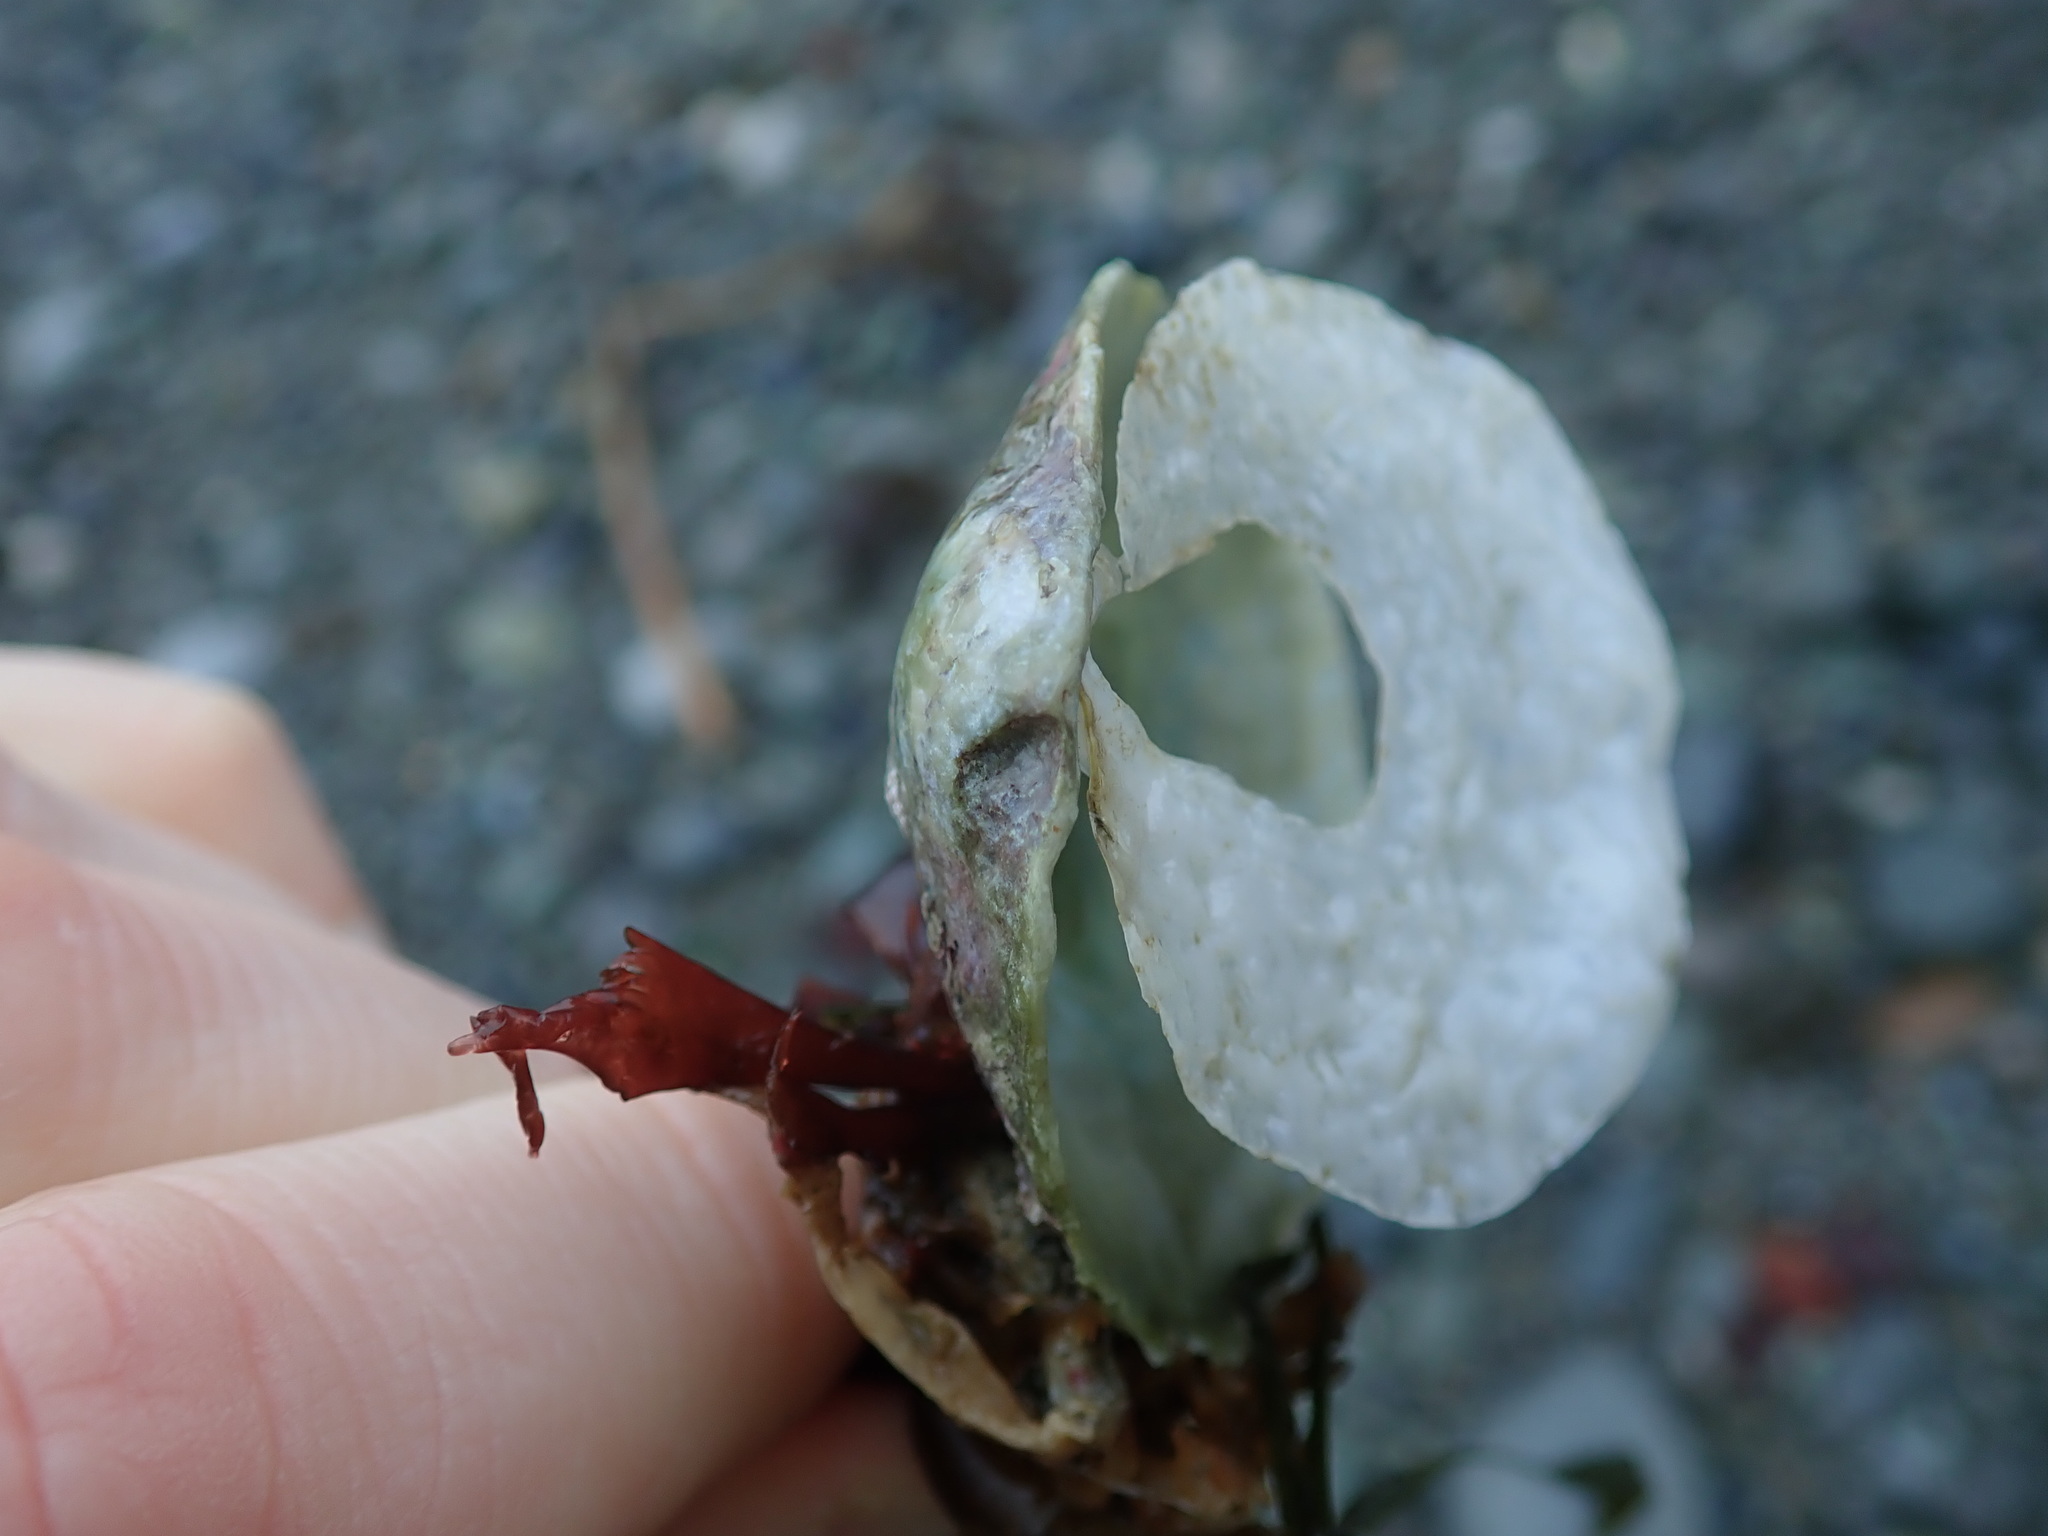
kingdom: Animalia
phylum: Mollusca
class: Bivalvia
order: Pectinida
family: Anomiidae
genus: Pododesmus
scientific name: Pododesmus macrochisma
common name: Alaska jingle
